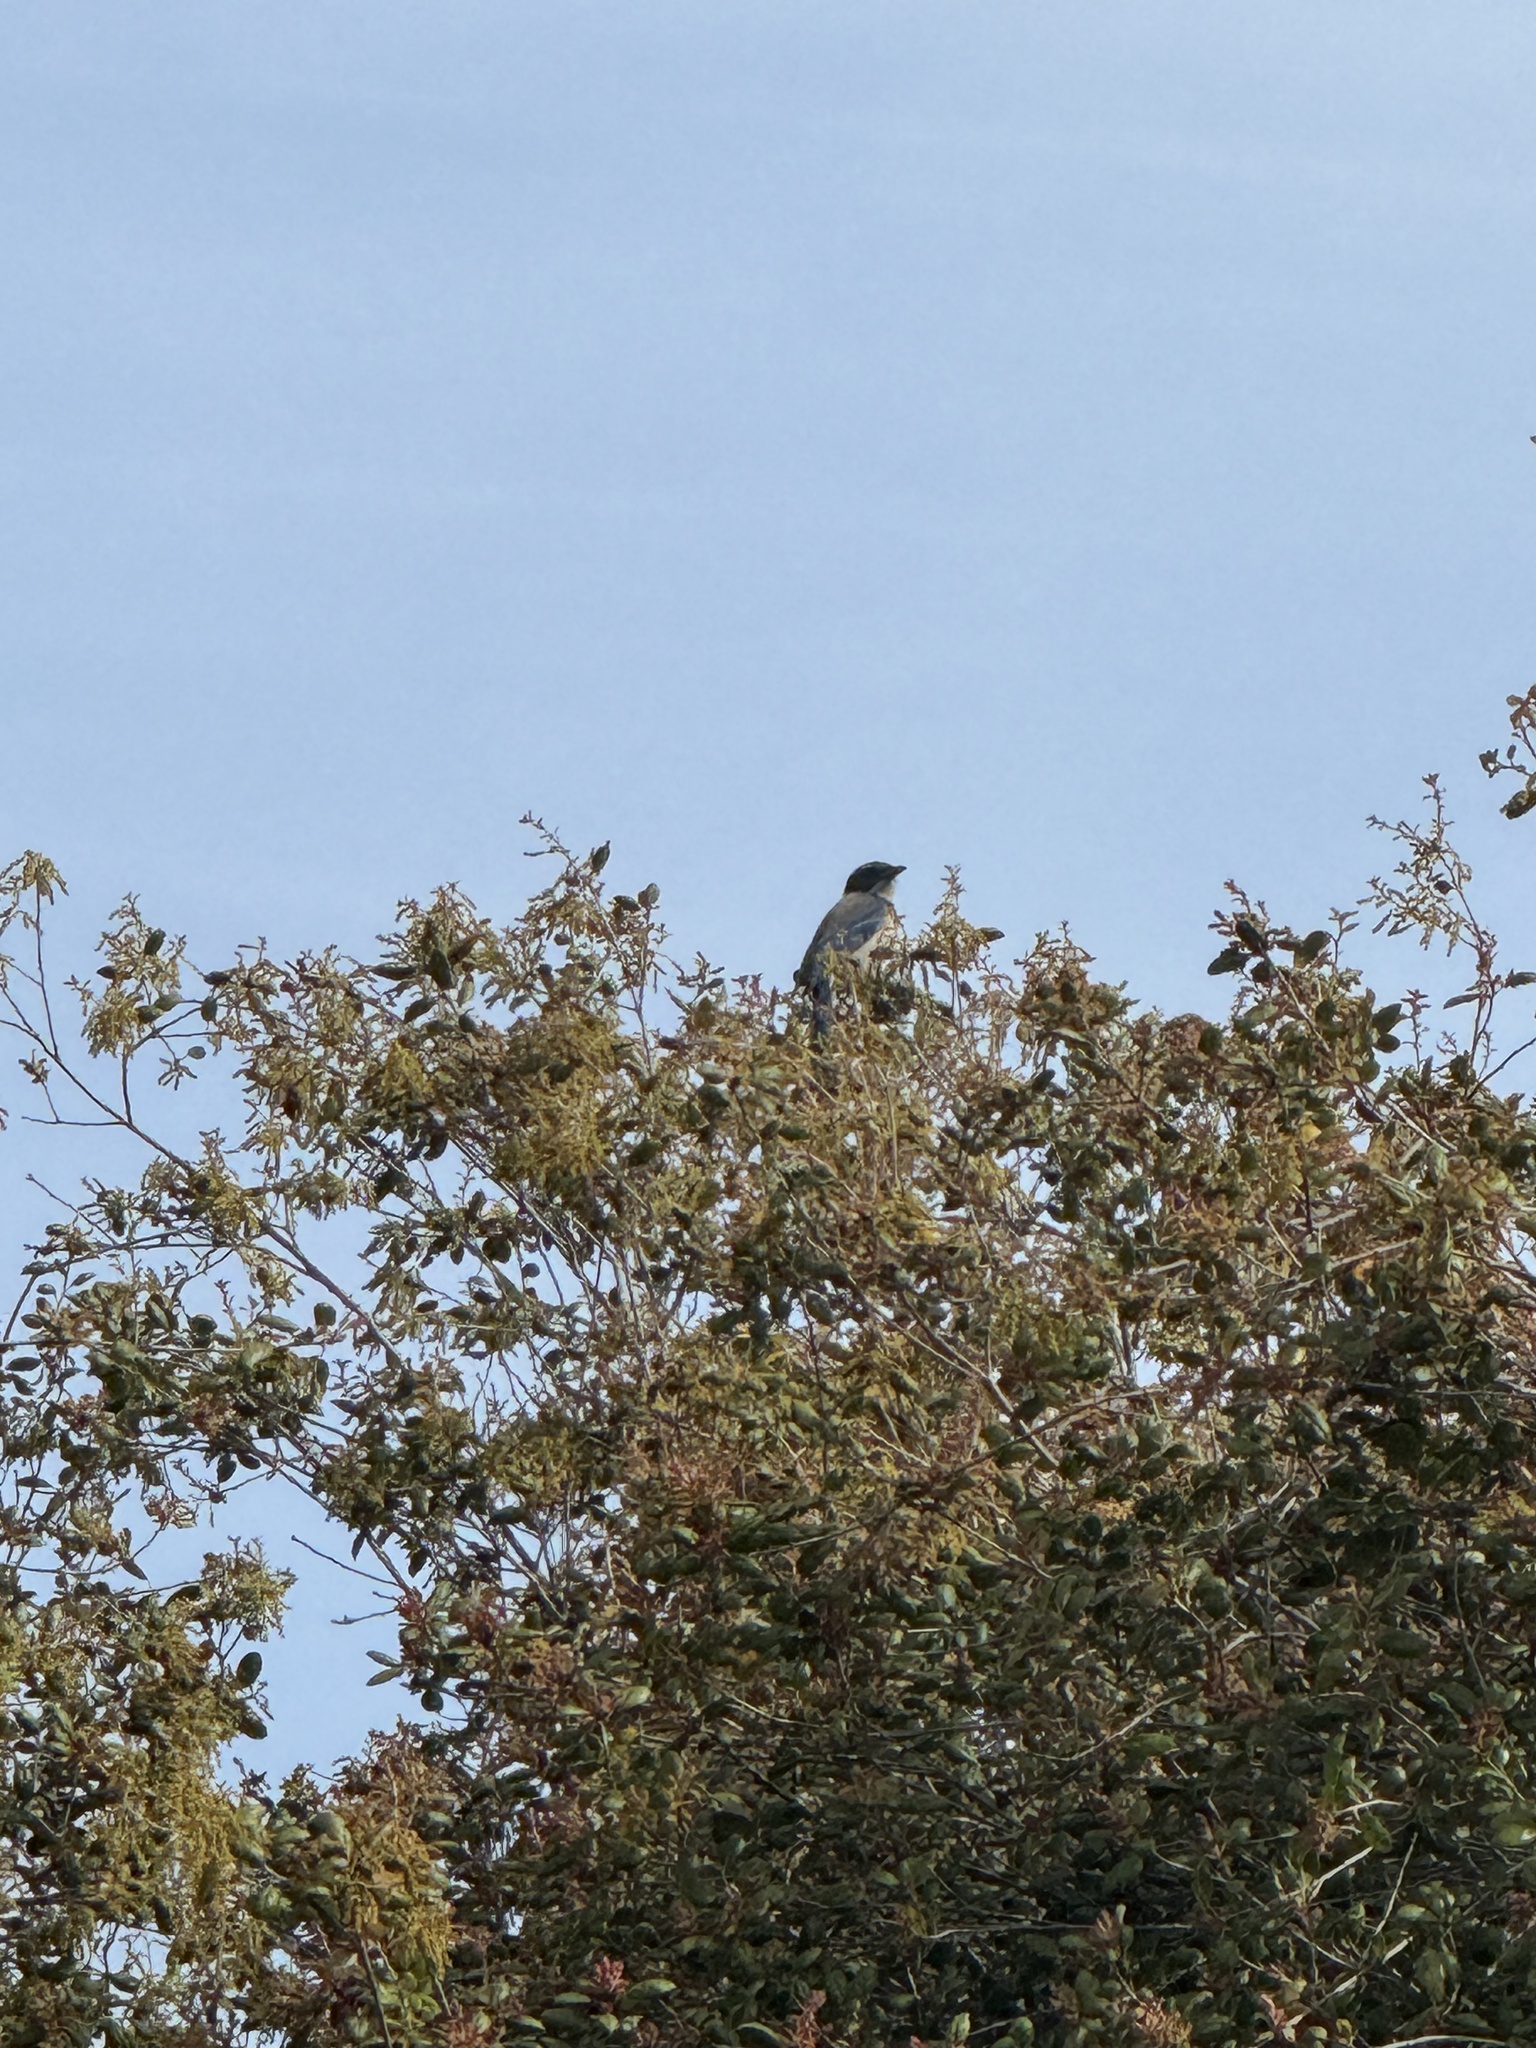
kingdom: Animalia
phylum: Chordata
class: Aves
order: Passeriformes
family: Corvidae
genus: Aphelocoma
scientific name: Aphelocoma californica
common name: California scrub-jay
